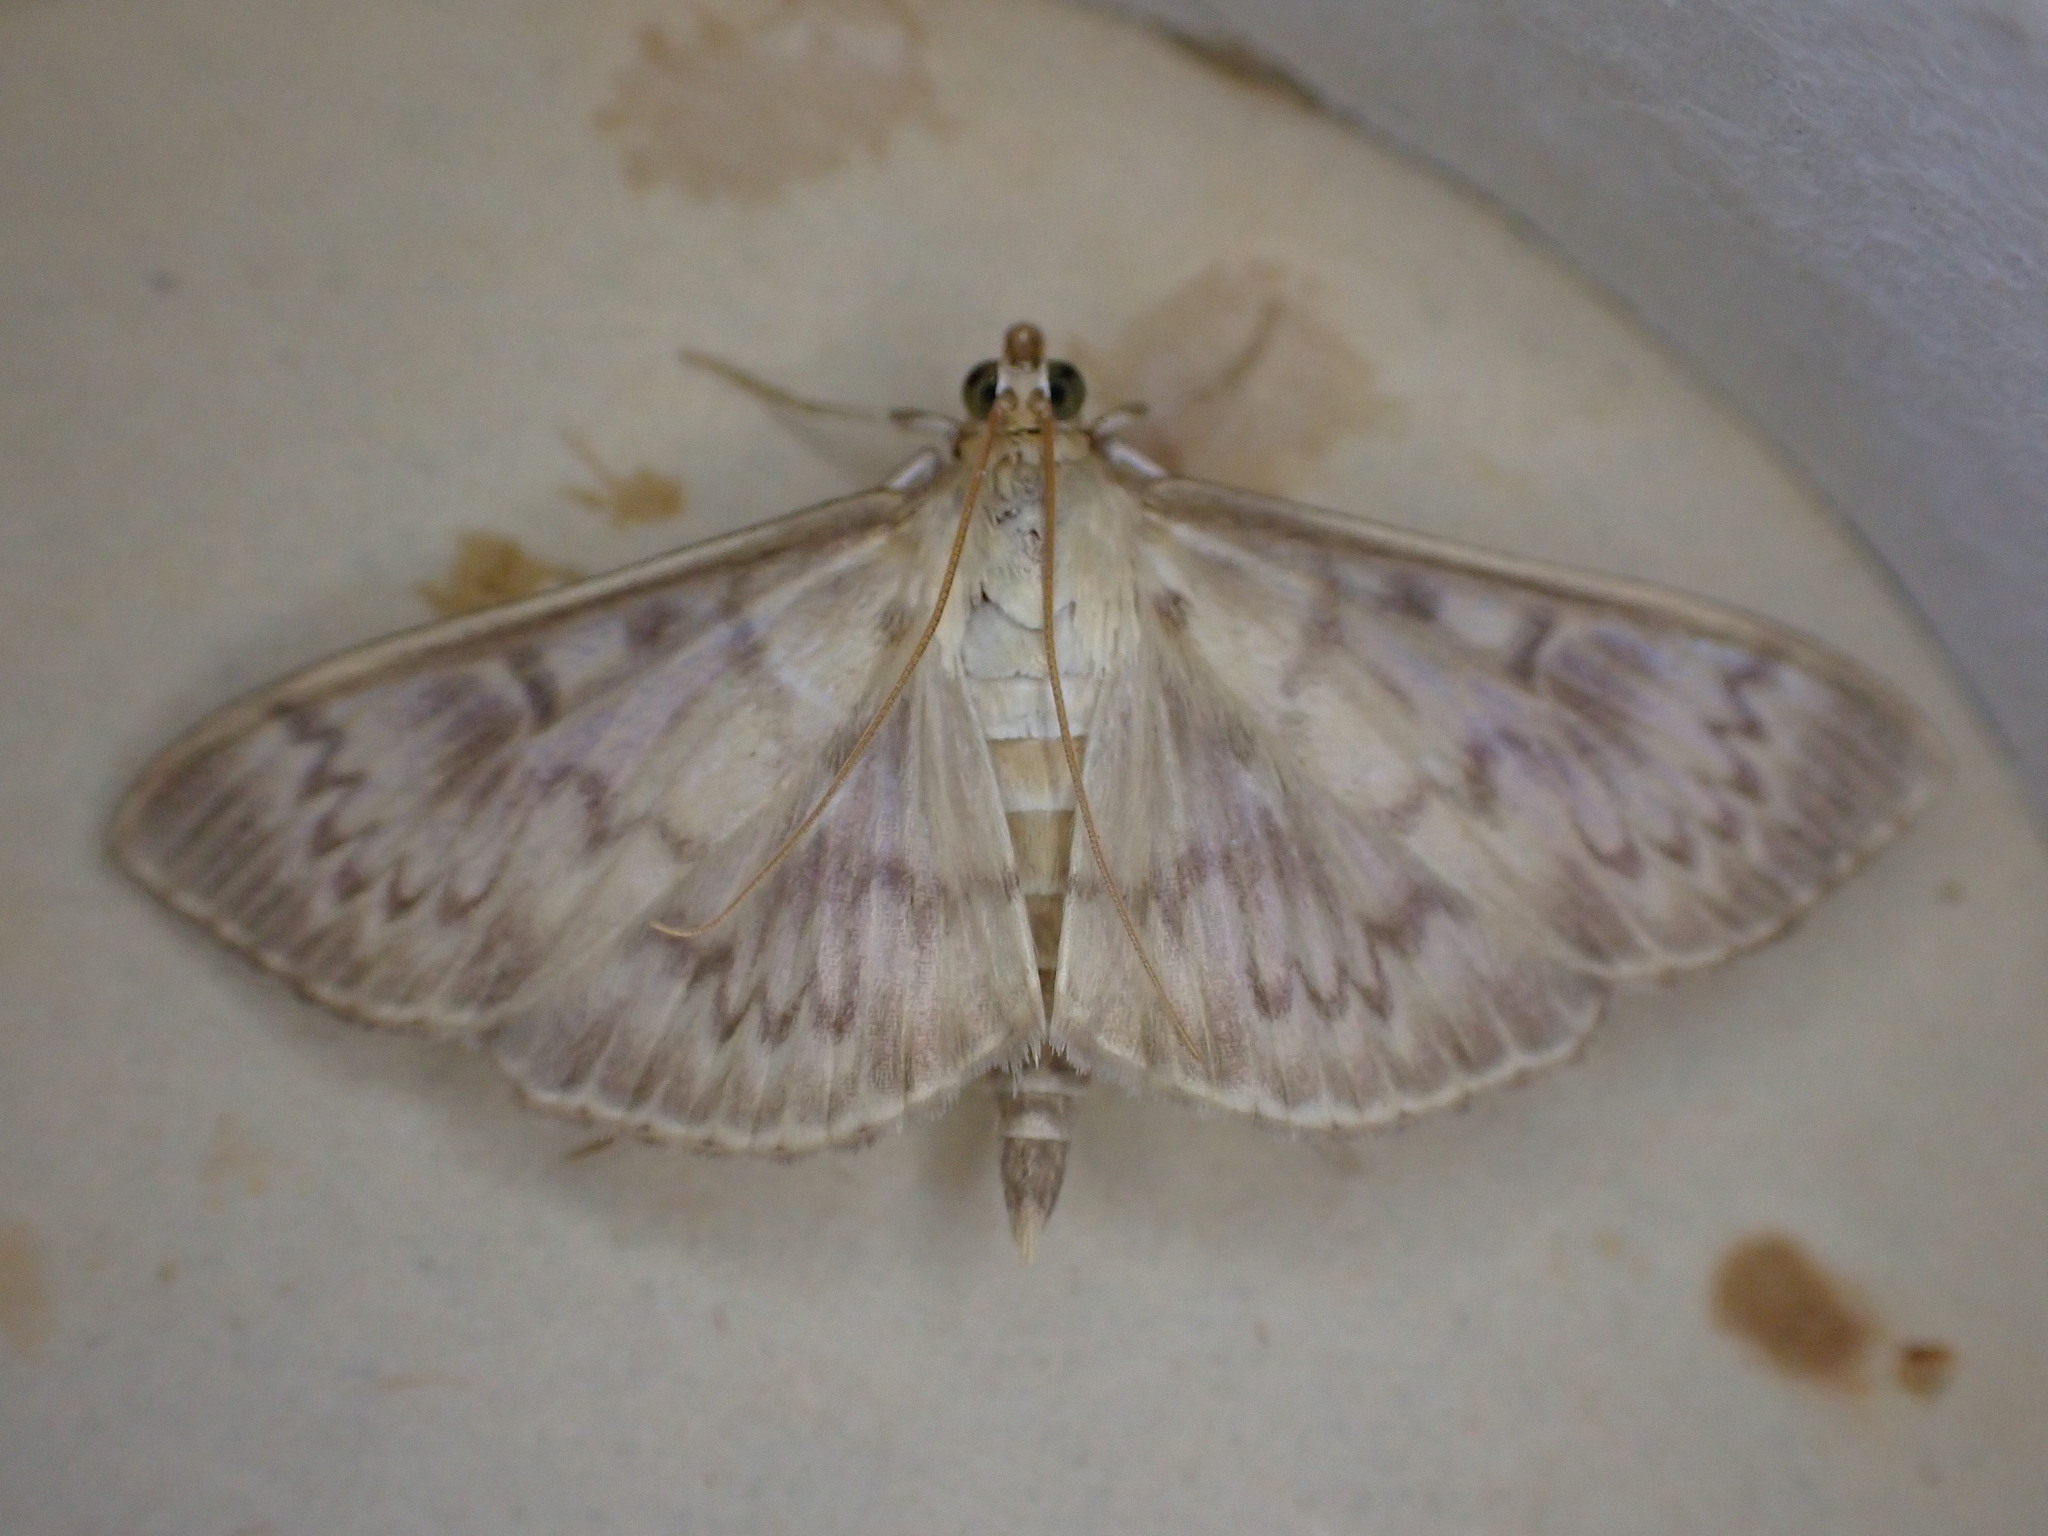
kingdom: Animalia
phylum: Arthropoda
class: Insecta
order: Lepidoptera
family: Crambidae
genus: Patania
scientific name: Patania ruralis
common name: Mother of pearl
